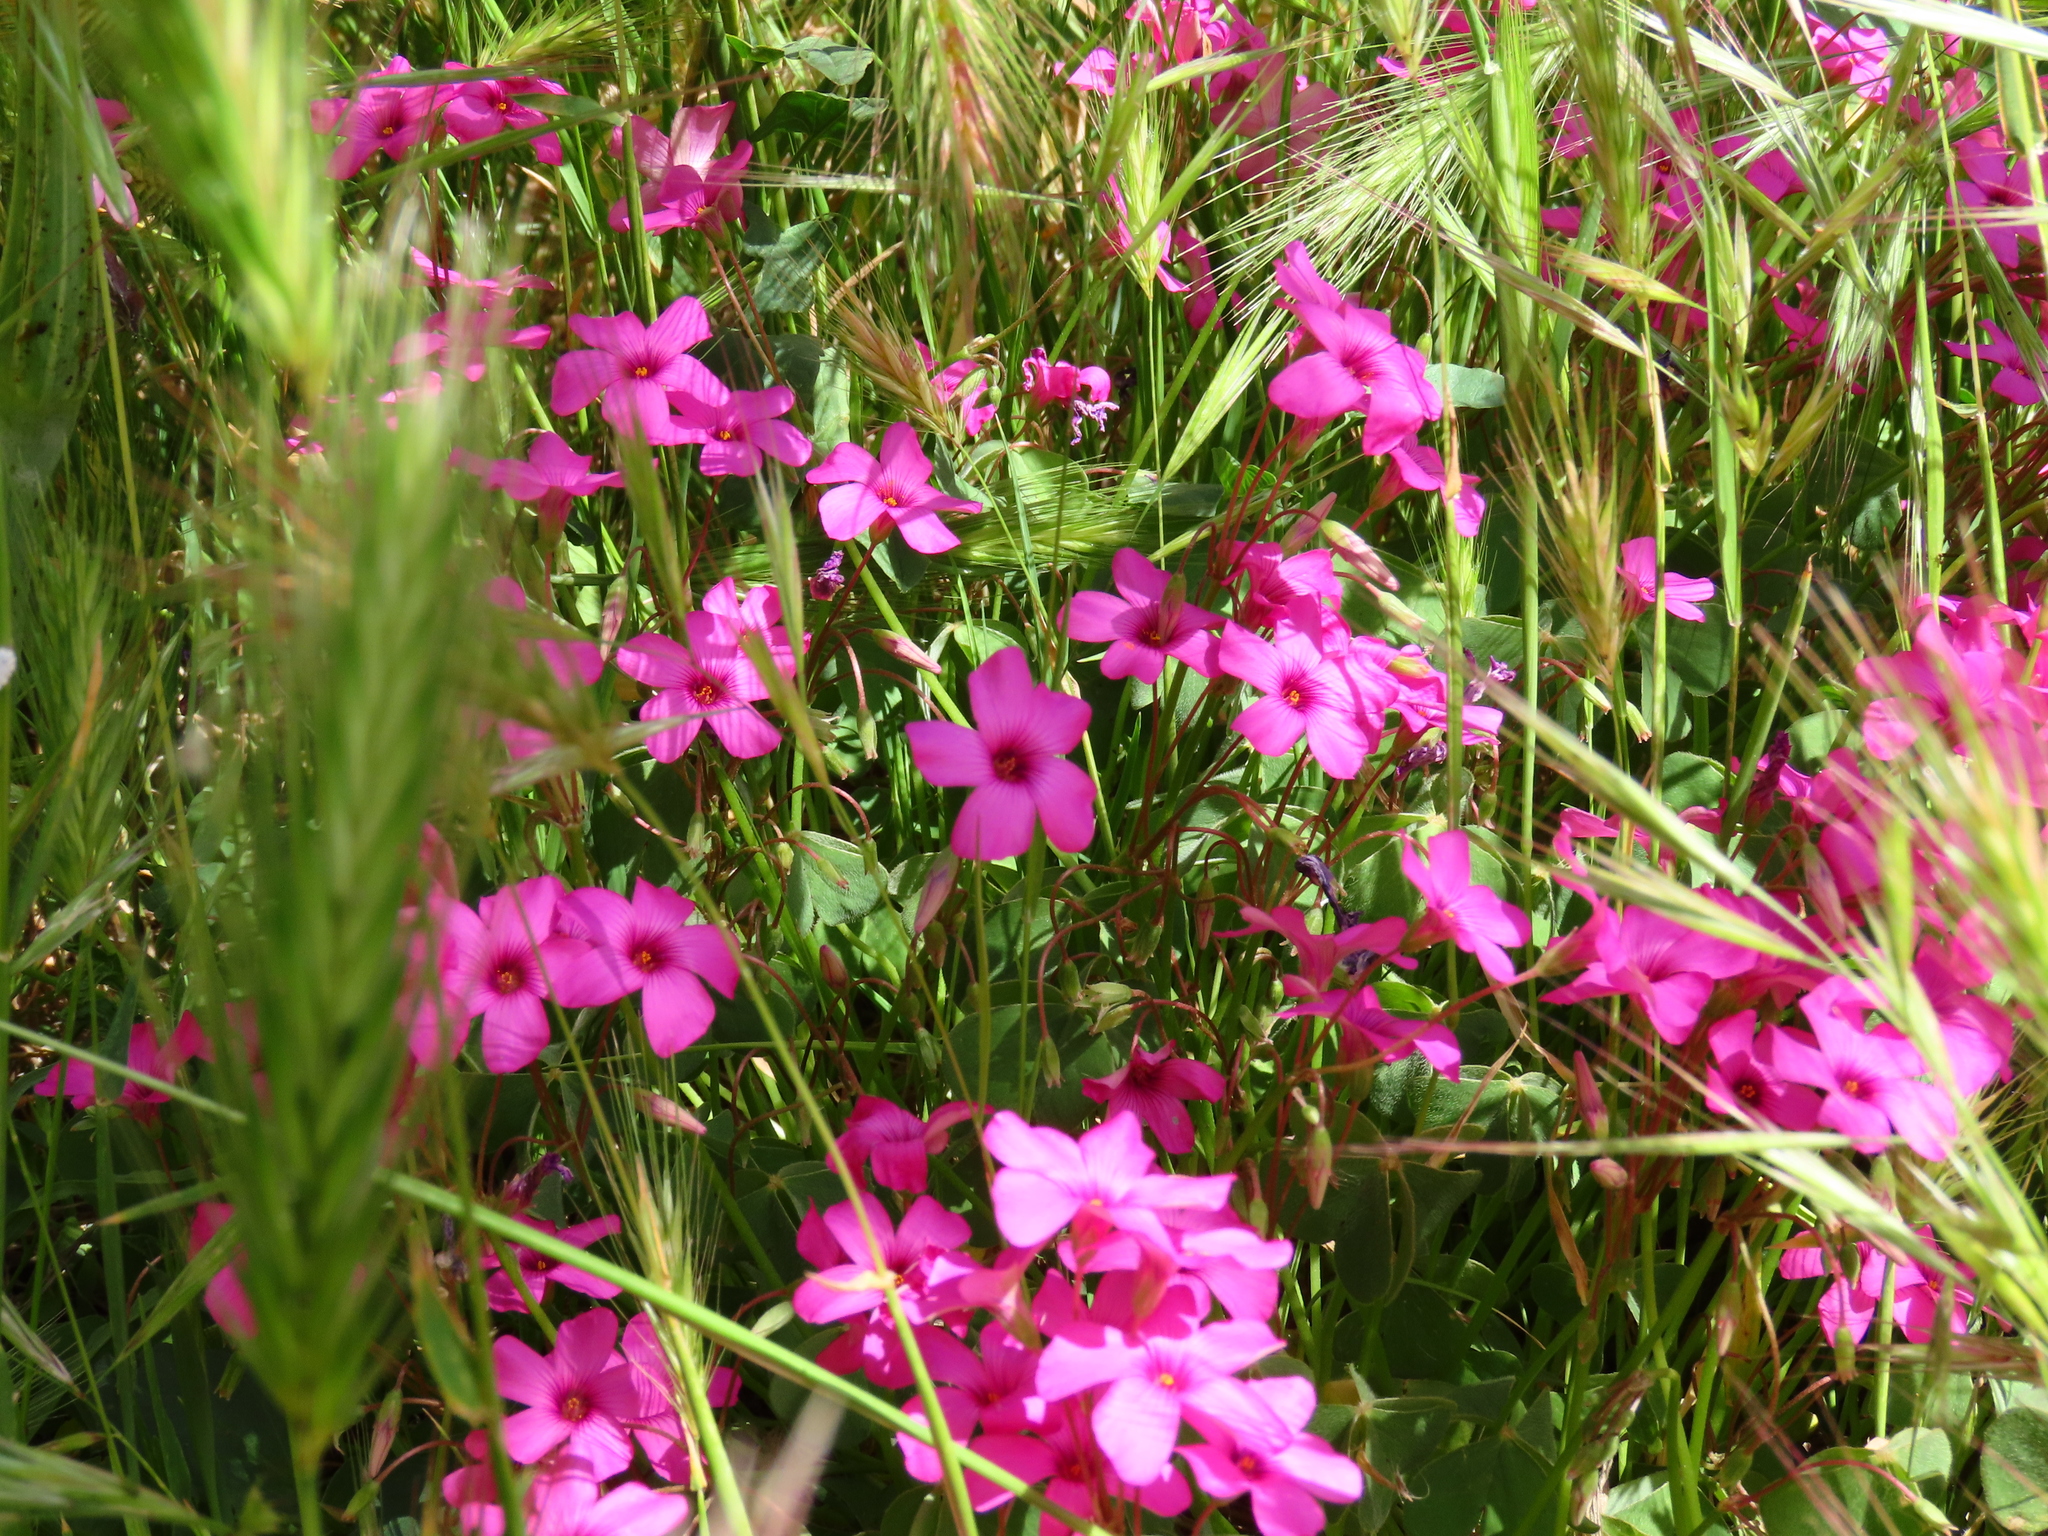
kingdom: Plantae
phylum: Tracheophyta
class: Magnoliopsida
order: Oxalidales
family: Oxalidaceae
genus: Oxalis
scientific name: Oxalis articulata
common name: Pink-sorrel
